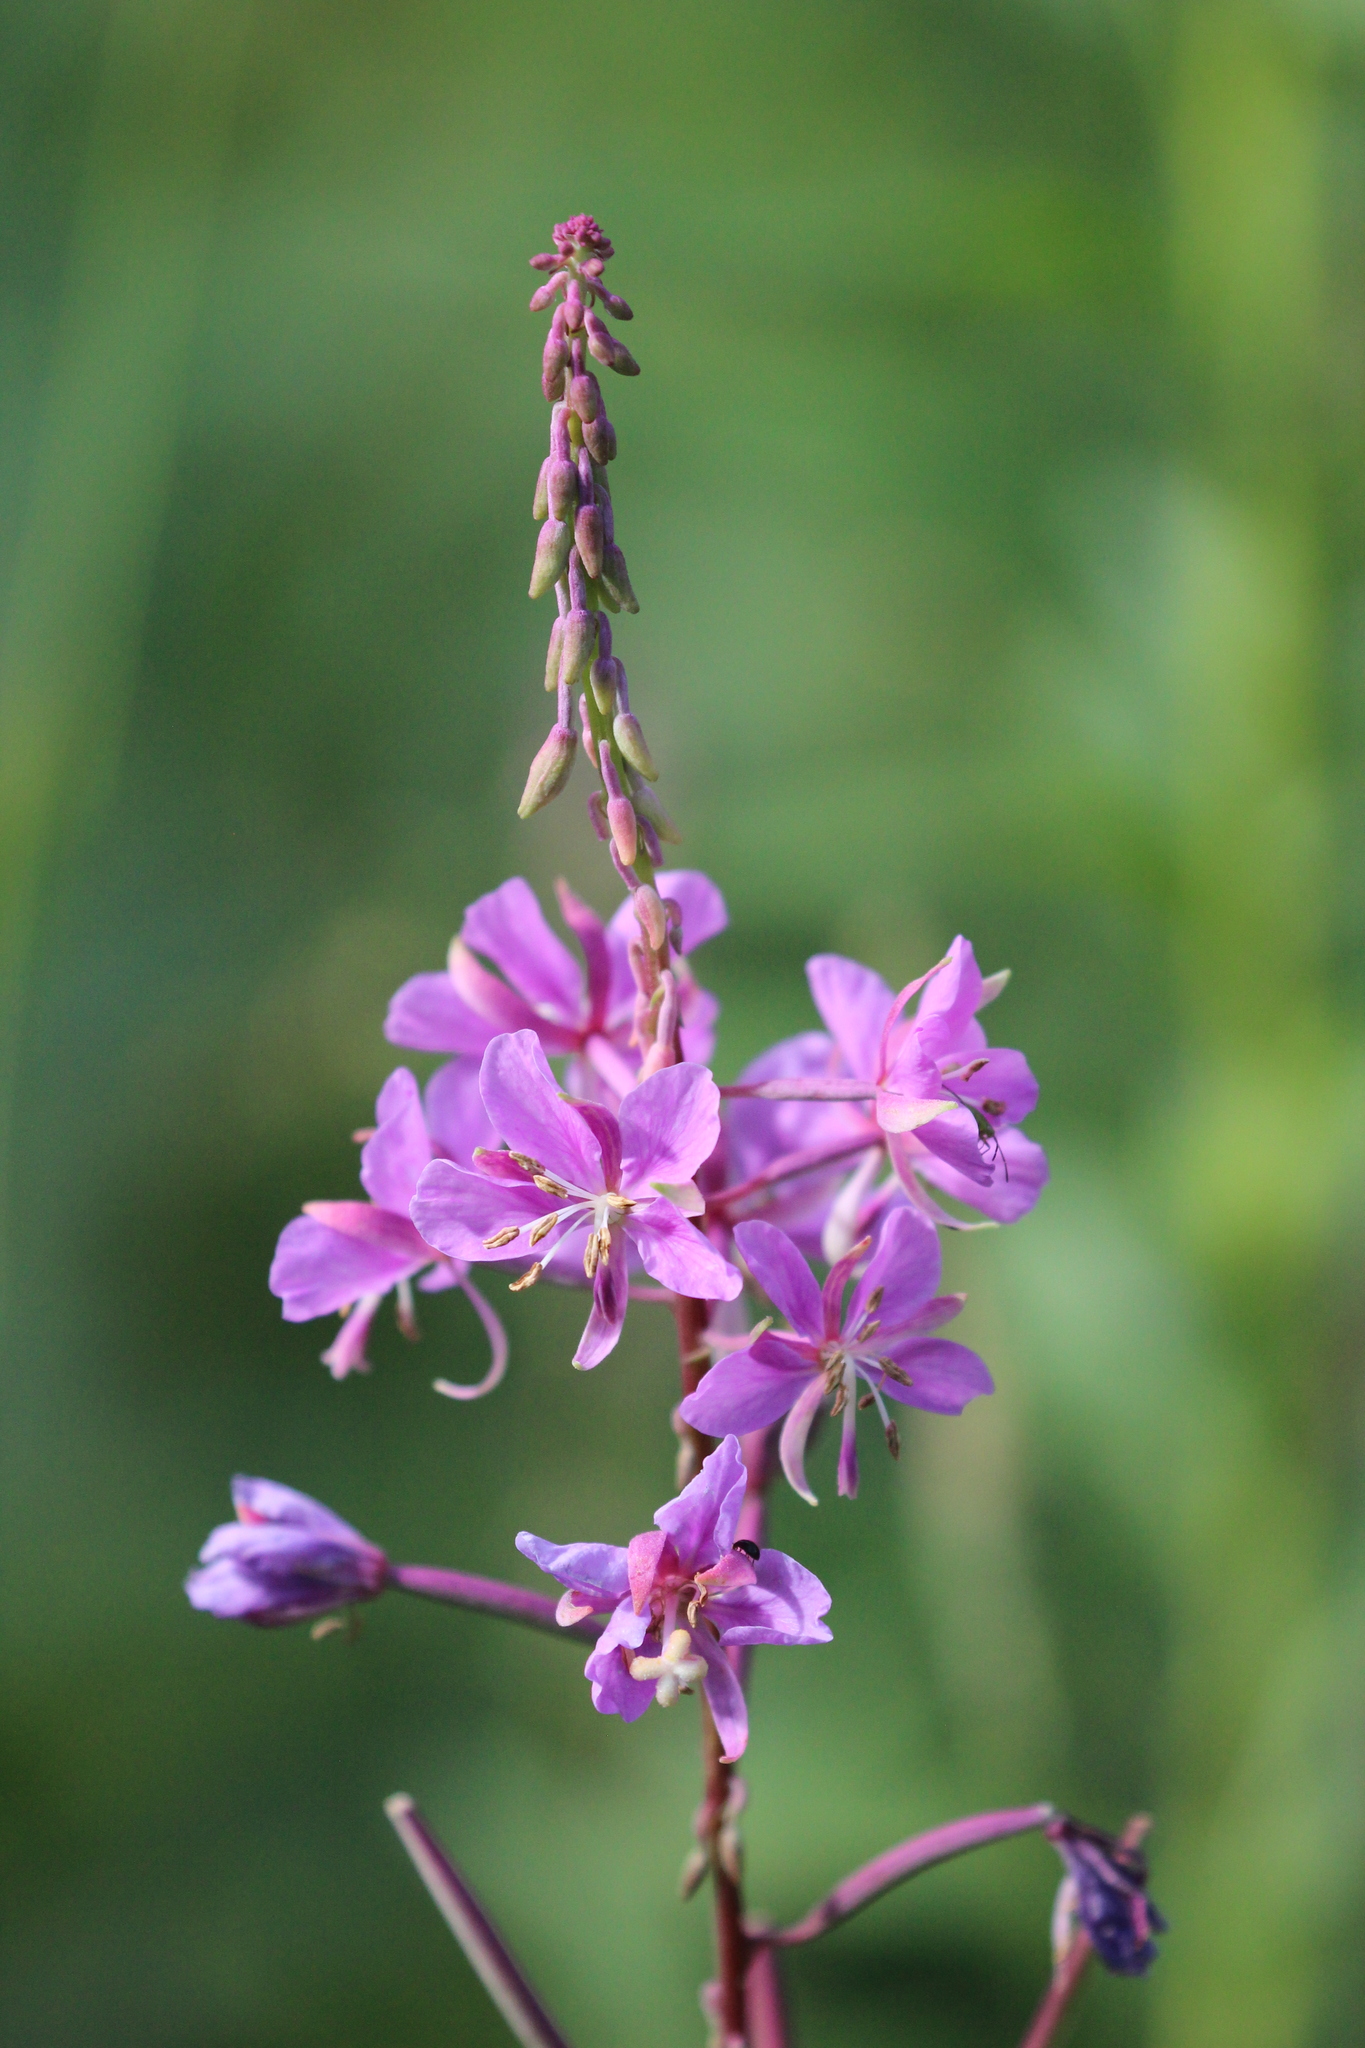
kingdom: Plantae
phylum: Tracheophyta
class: Magnoliopsida
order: Myrtales
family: Onagraceae
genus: Chamaenerion
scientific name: Chamaenerion angustifolium
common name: Fireweed
